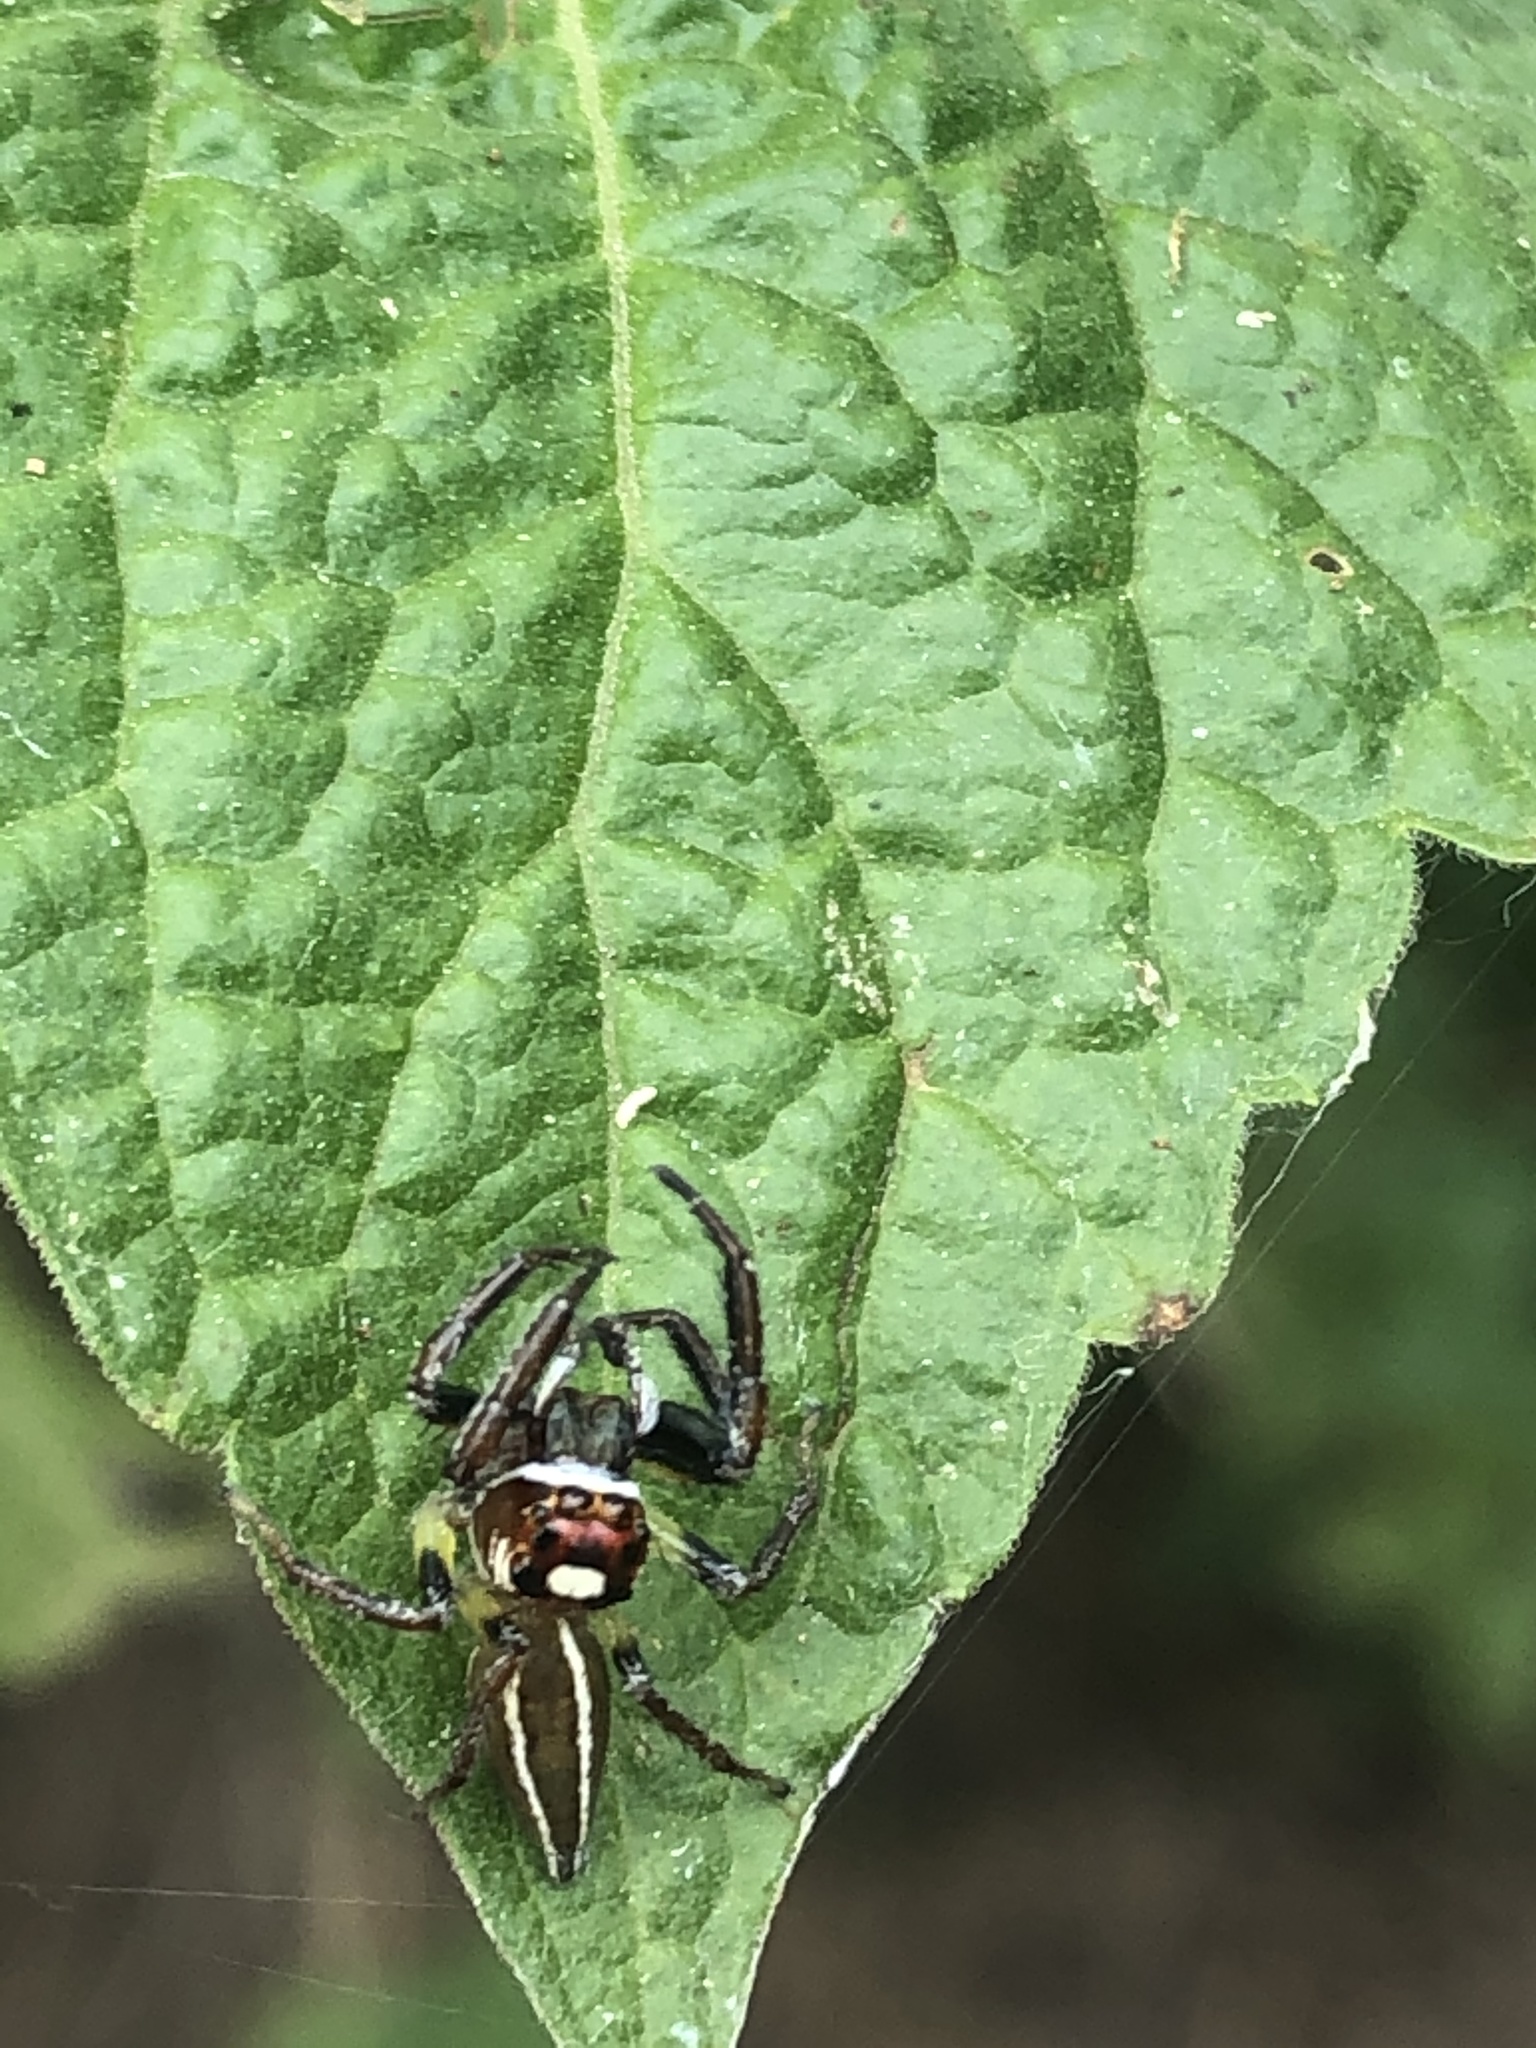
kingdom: Animalia
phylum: Arthropoda
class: Arachnida
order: Araneae
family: Salticidae
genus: Colonus
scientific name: Colonus sylvanus
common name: Jumping spiders
